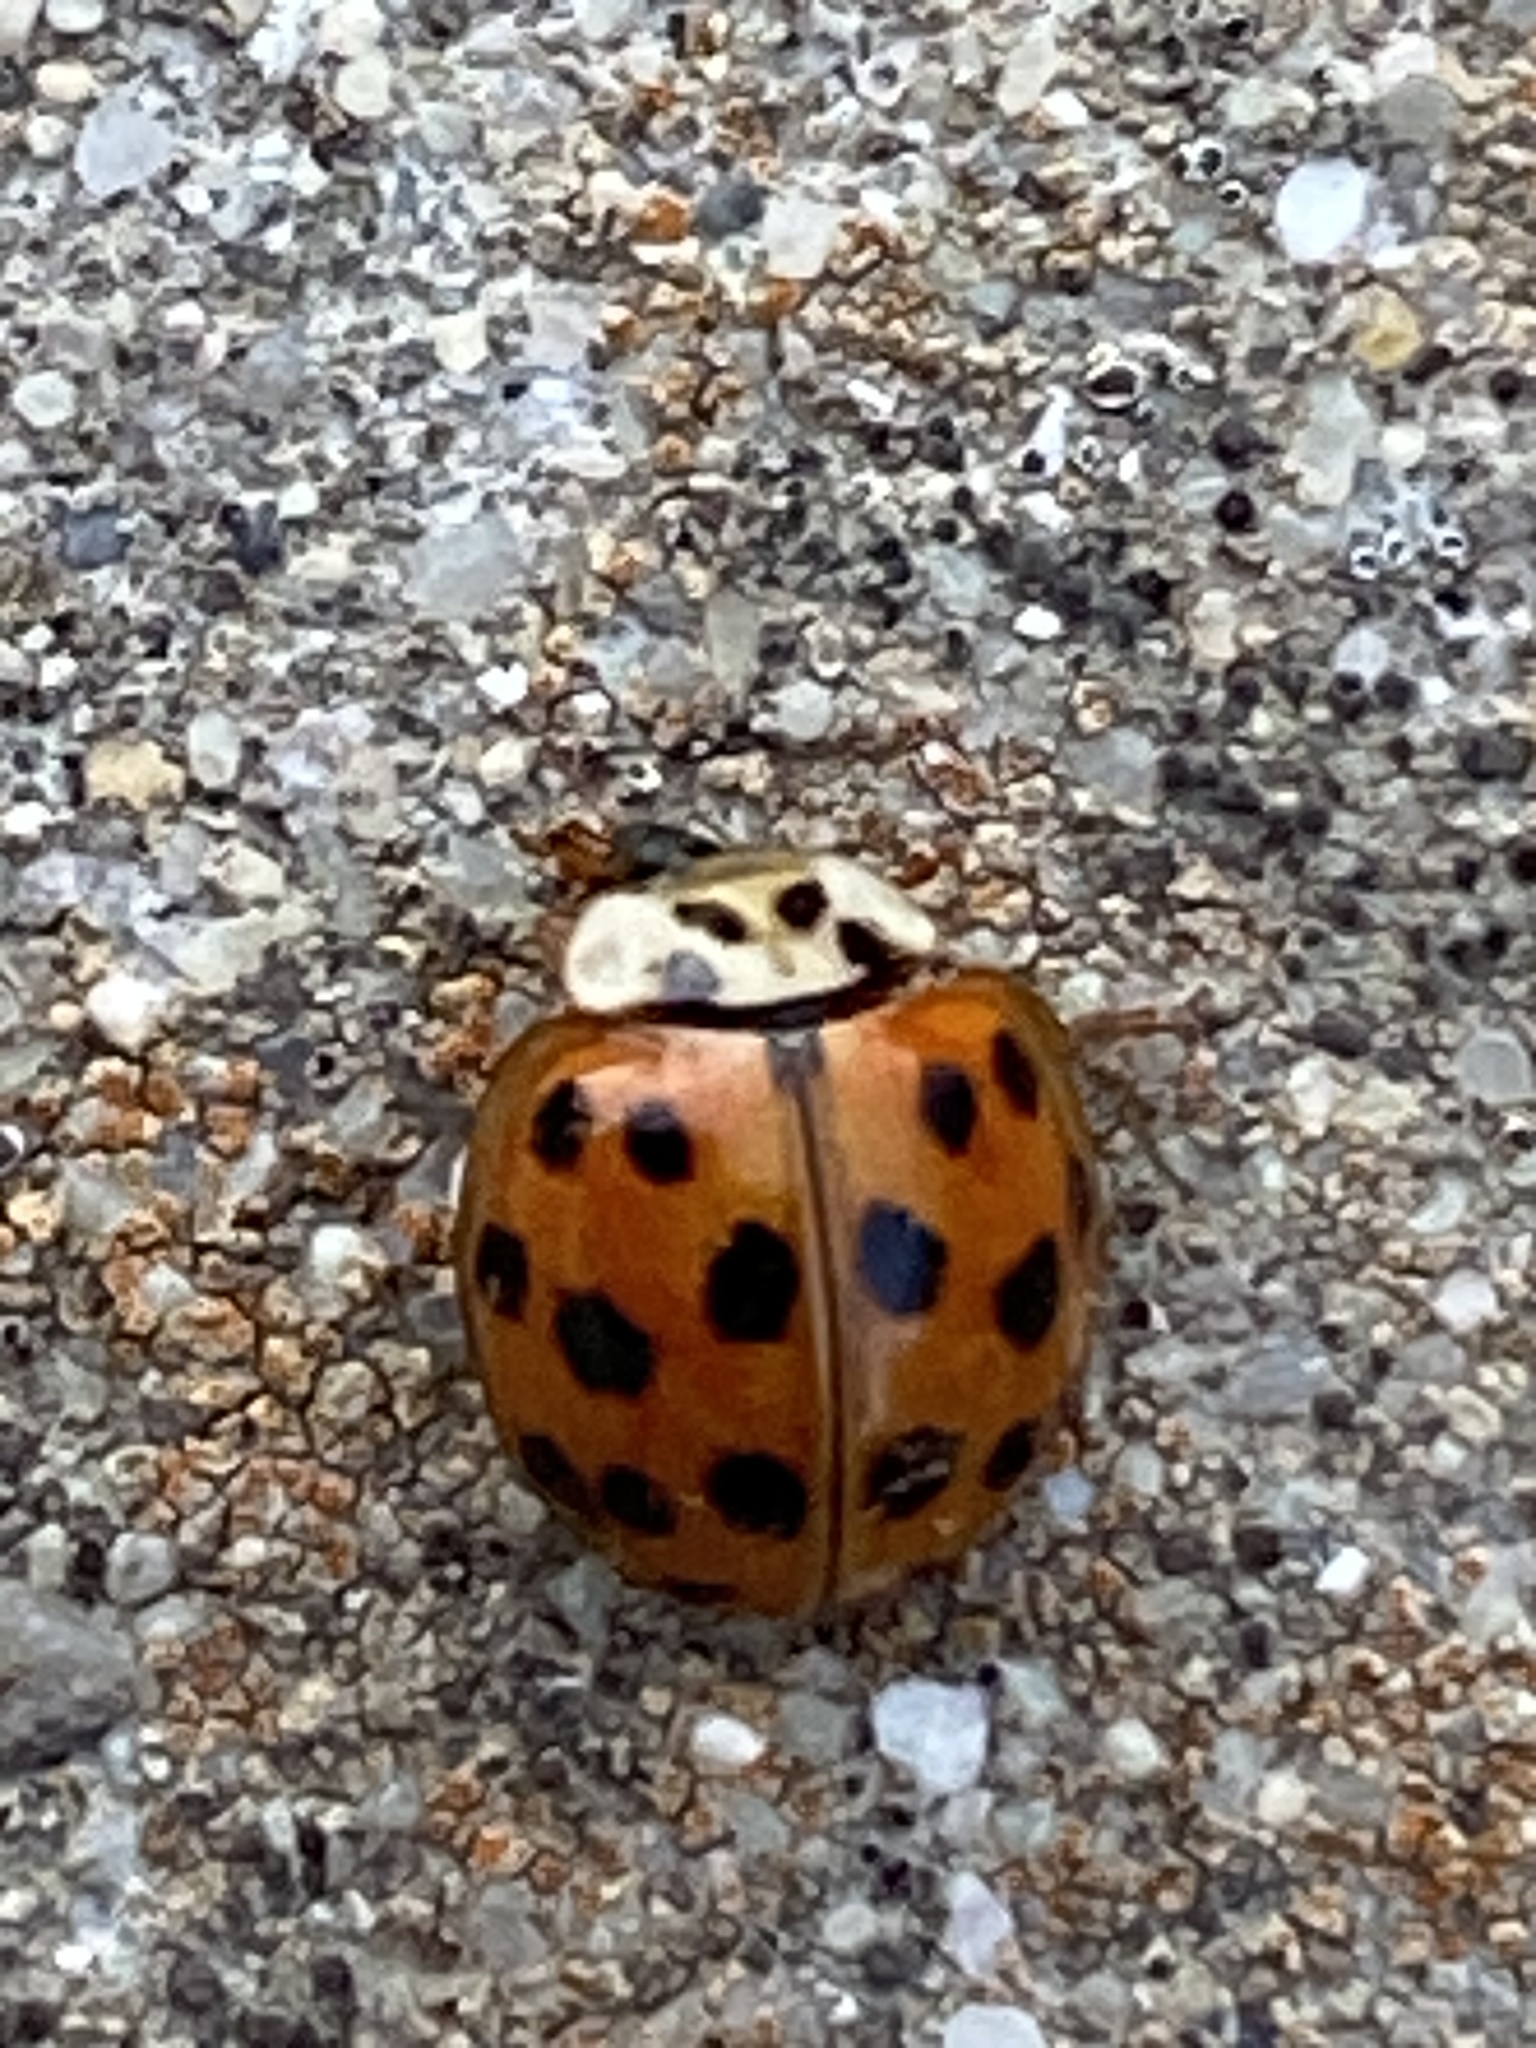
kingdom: Animalia
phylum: Arthropoda
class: Insecta
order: Coleoptera
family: Coccinellidae
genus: Harmonia
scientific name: Harmonia axyridis
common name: Harlequin ladybird
